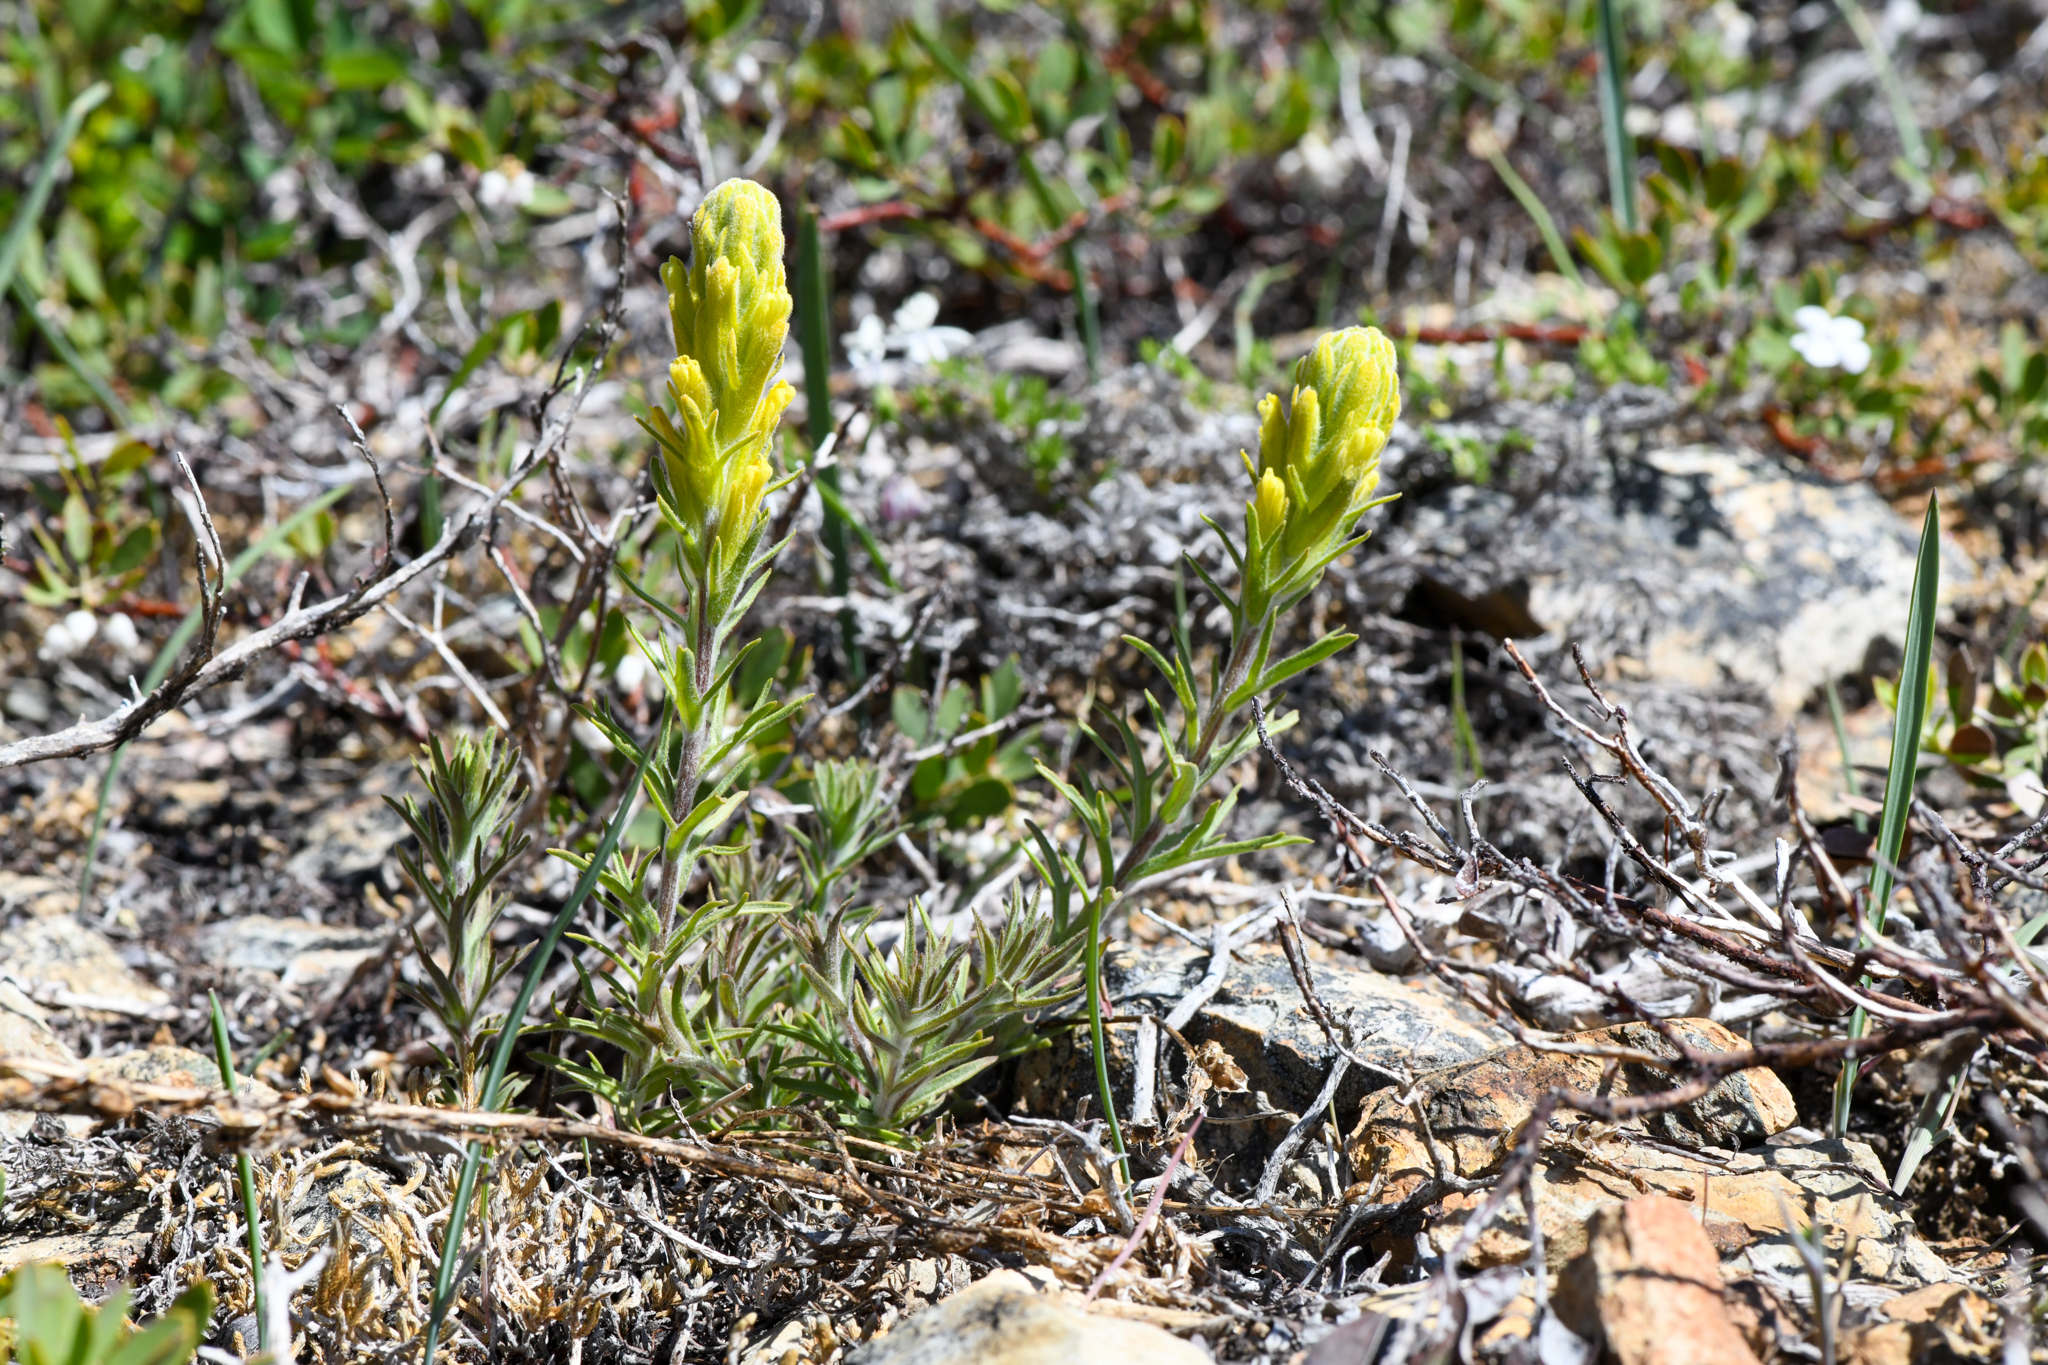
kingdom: Plantae
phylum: Tracheophyta
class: Magnoliopsida
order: Lamiales
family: Orobanchaceae
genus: Castilleja
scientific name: Castilleja arachnoidea
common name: Cobwebby indian paintbrush
